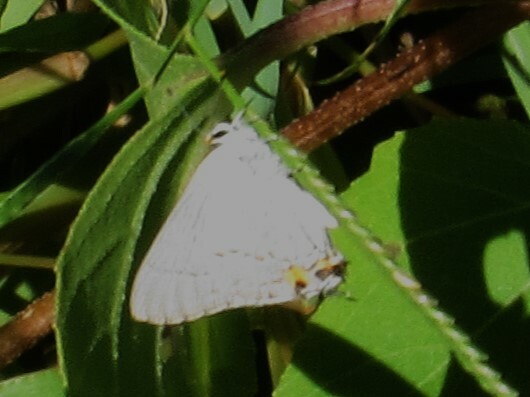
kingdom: Animalia
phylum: Arthropoda
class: Insecta
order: Lepidoptera
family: Lycaenidae
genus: Strymon
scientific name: Strymon melinus
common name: Gray hairstreak
